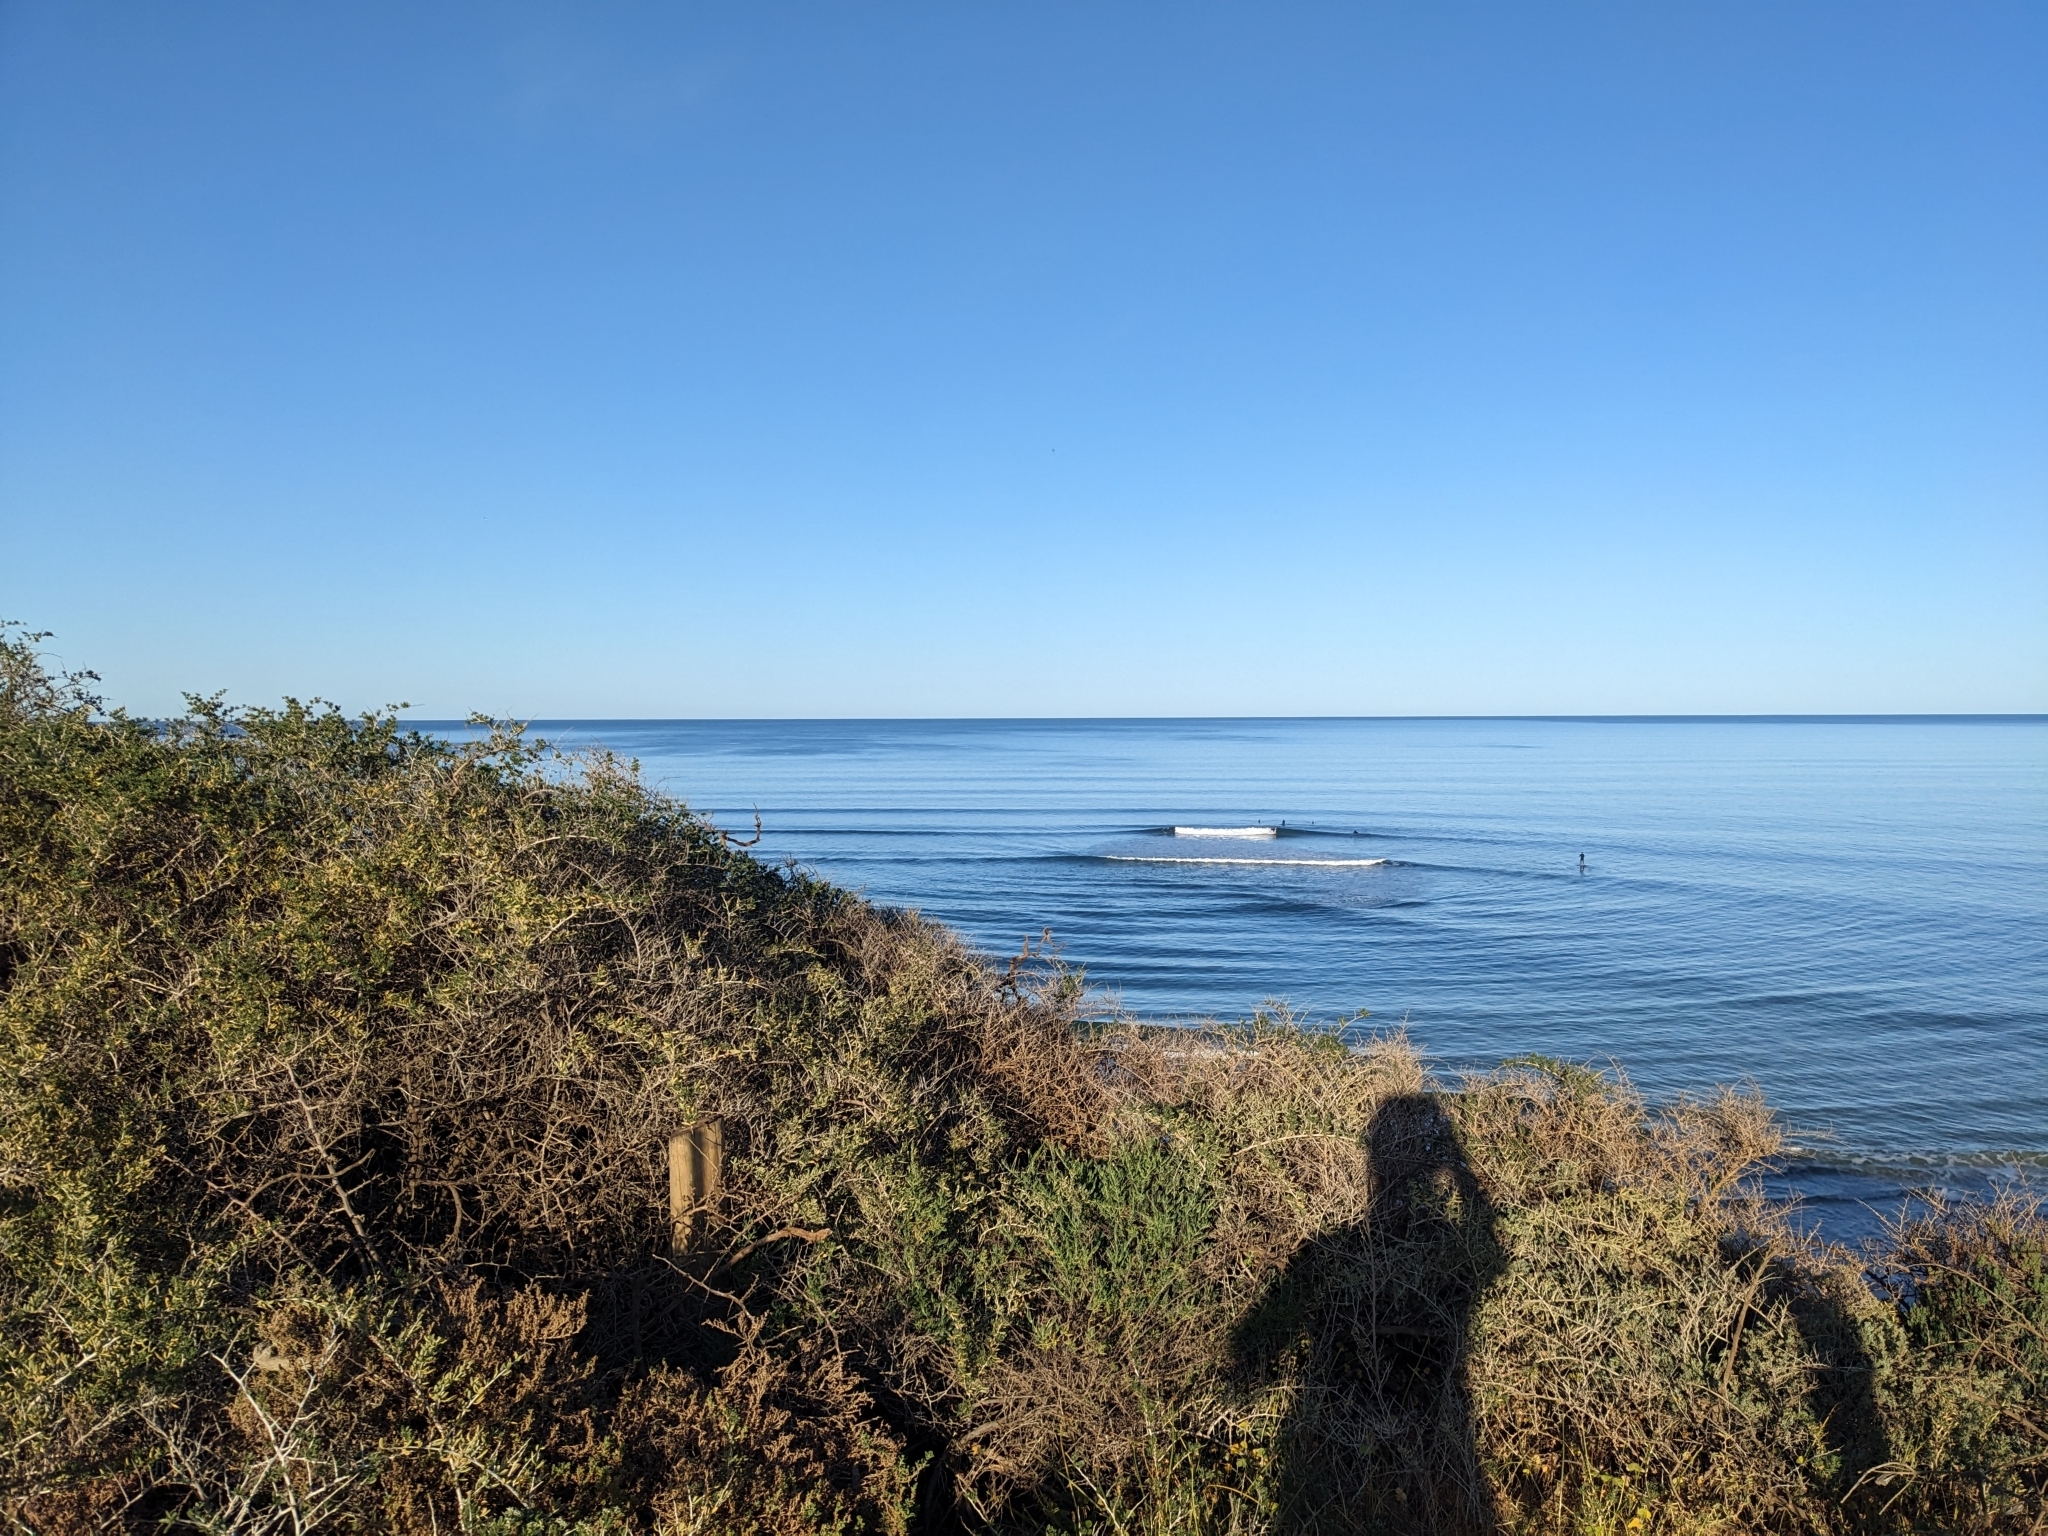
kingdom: Plantae
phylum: Tracheophyta
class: Magnoliopsida
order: Sapindales
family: Nitrariaceae
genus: Nitraria
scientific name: Nitraria billardierei
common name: Dillonbush
